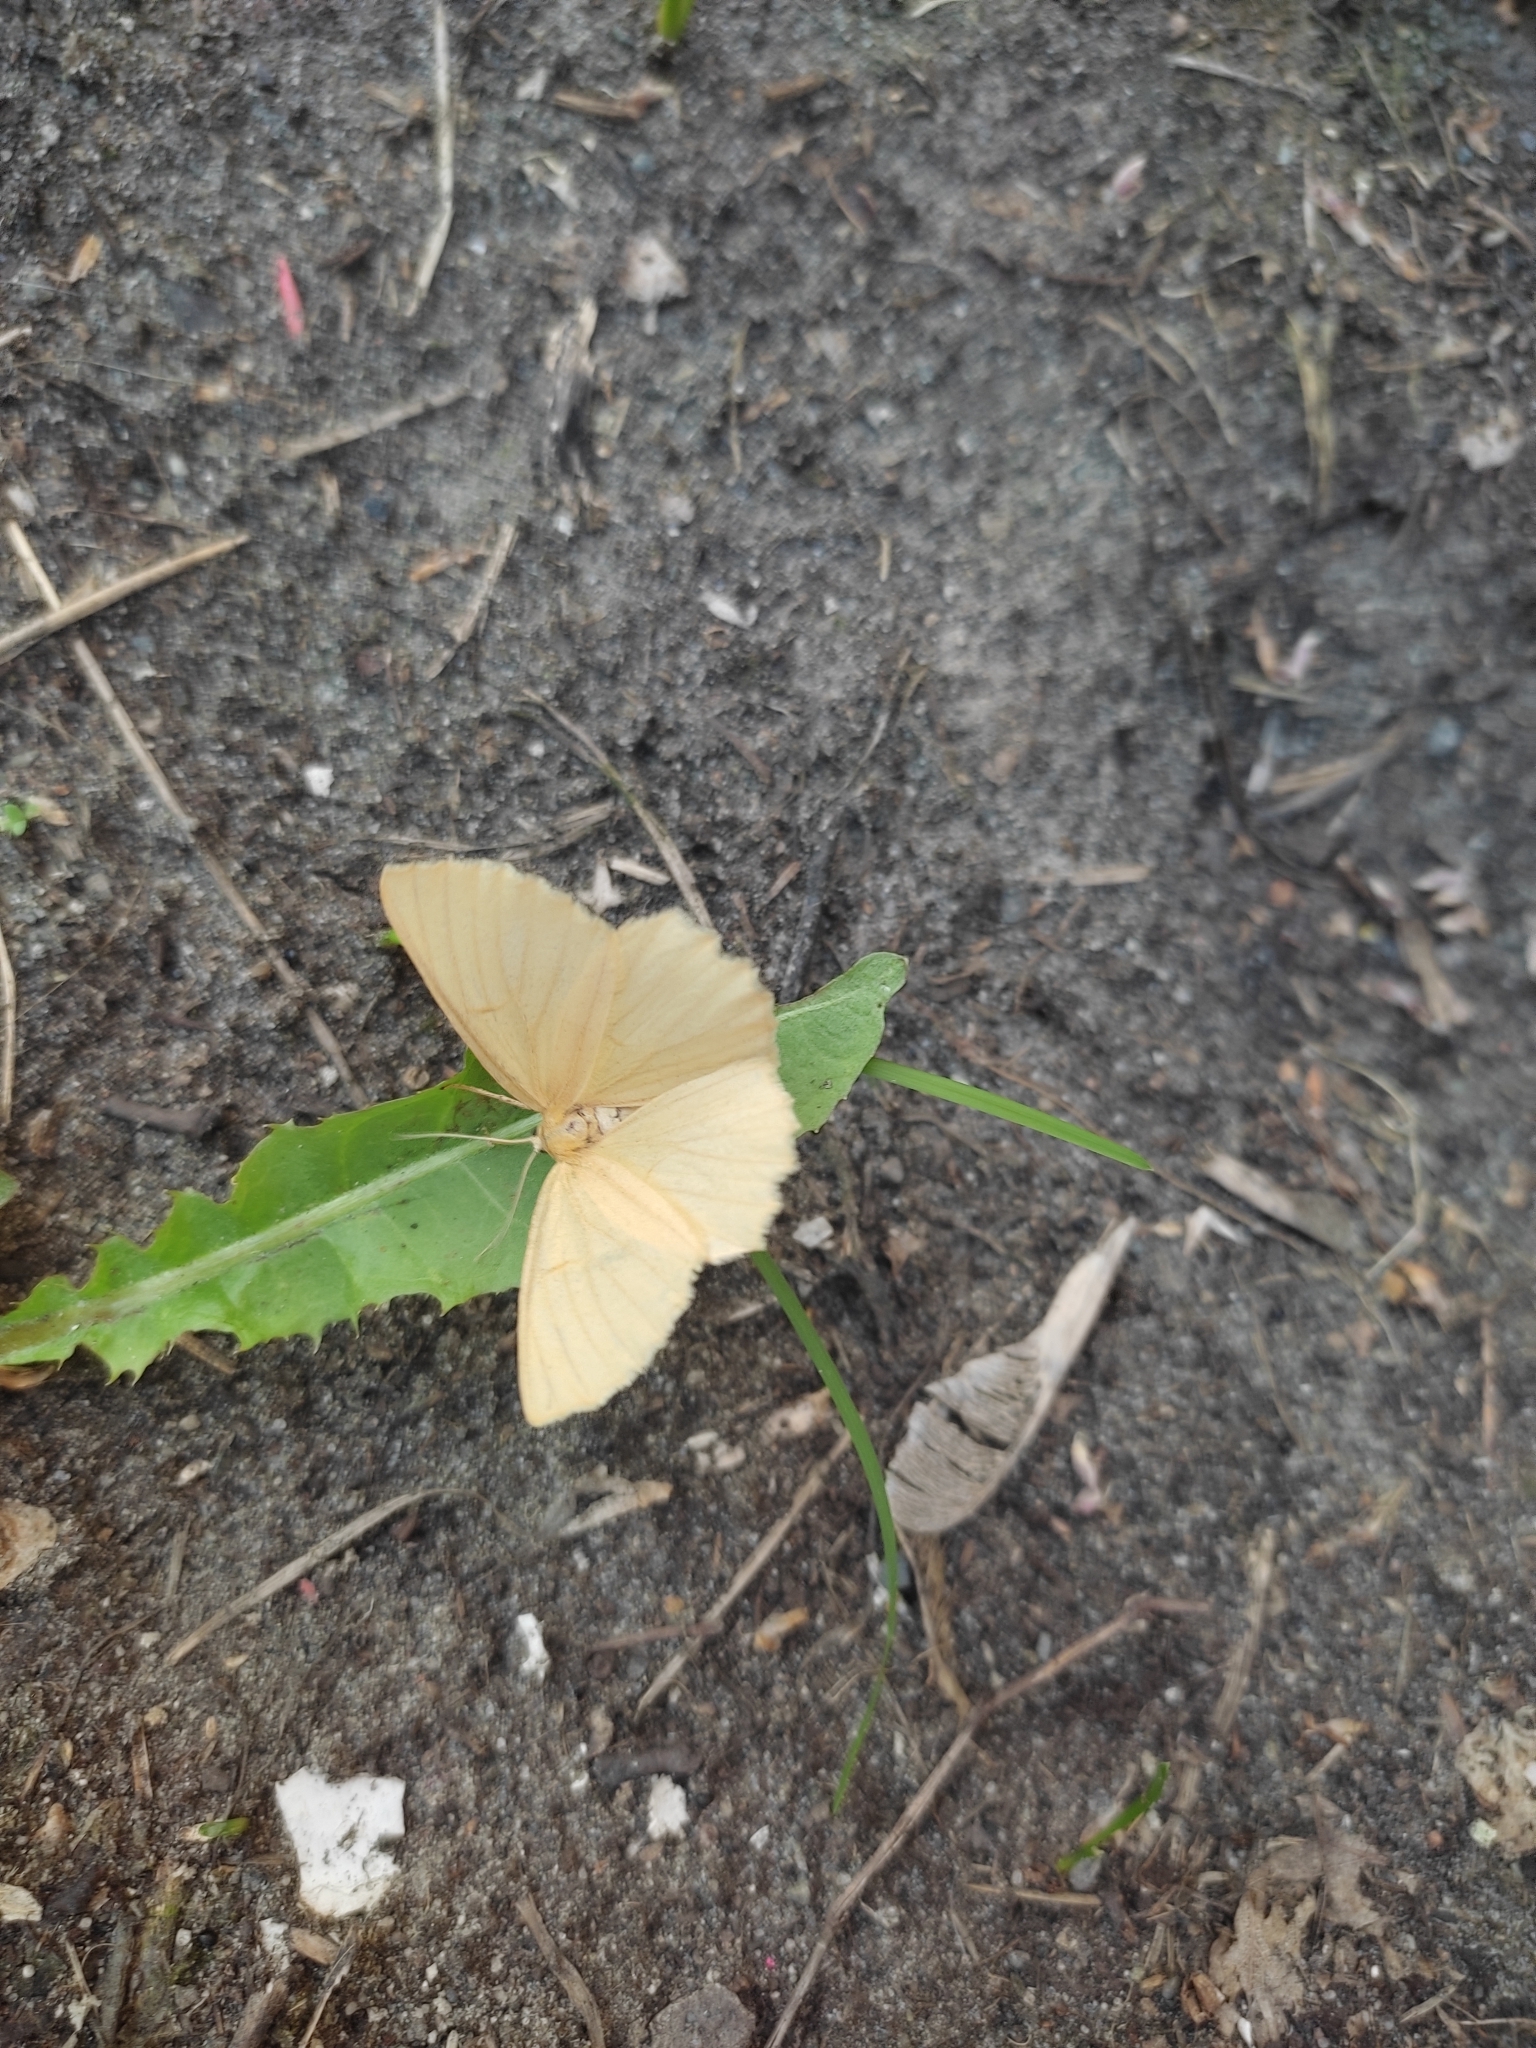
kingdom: Animalia
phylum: Arthropoda
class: Insecta
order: Lepidoptera
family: Geometridae
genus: Angerona
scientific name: Angerona prunaria
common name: Orange moth
